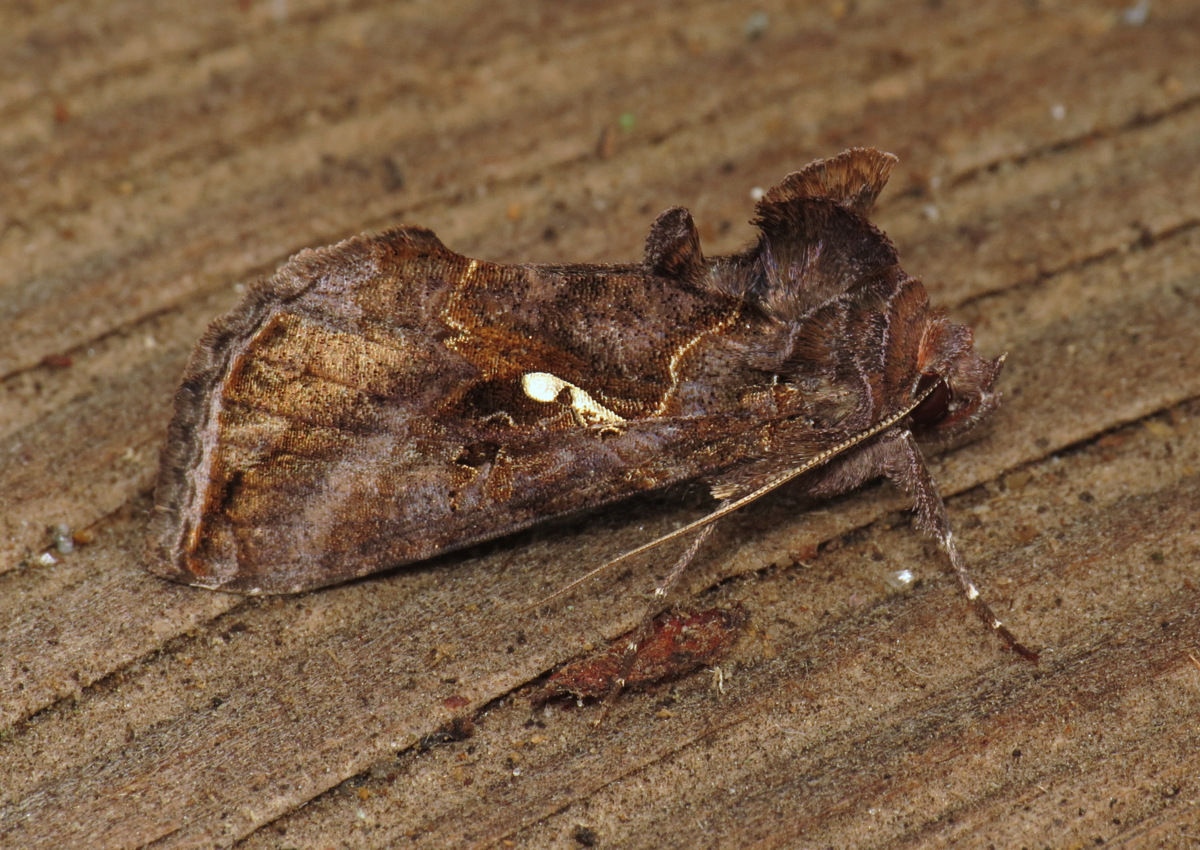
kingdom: Animalia
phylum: Arthropoda
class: Insecta
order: Lepidoptera
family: Noctuidae
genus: Autographa
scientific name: Autographa precationis
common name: Common looper moth
